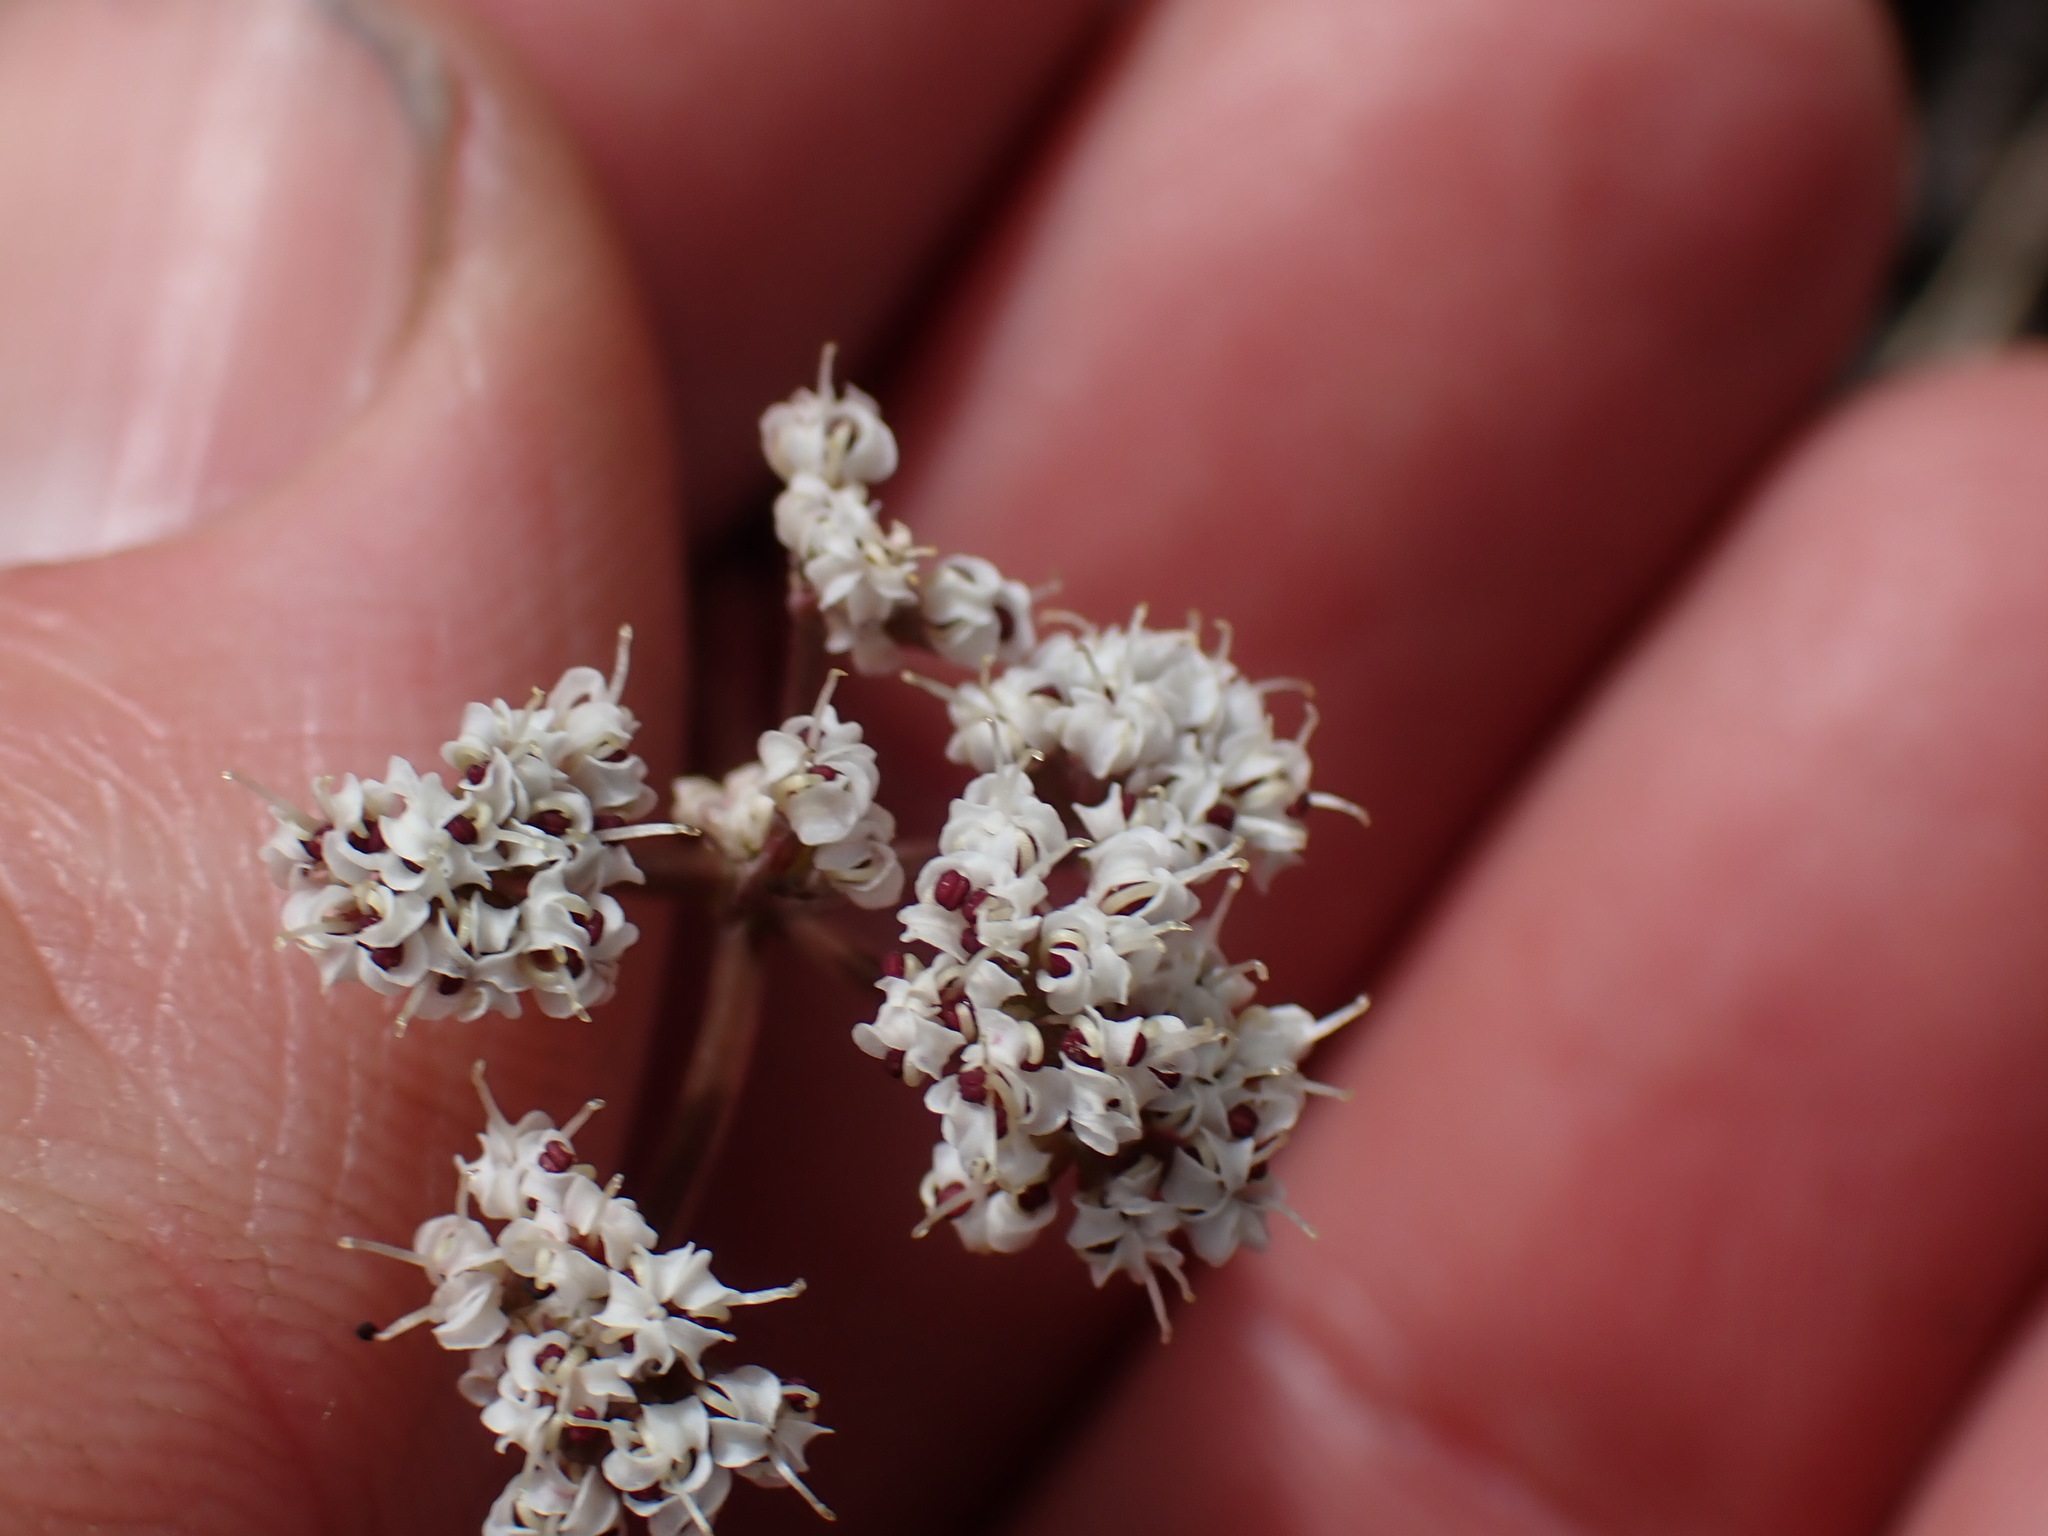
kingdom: Plantae
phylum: Tracheophyta
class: Magnoliopsida
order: Apiales
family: Apiaceae
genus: Lomatium
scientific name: Lomatium geyeri
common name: Geyer's biscuitroot
